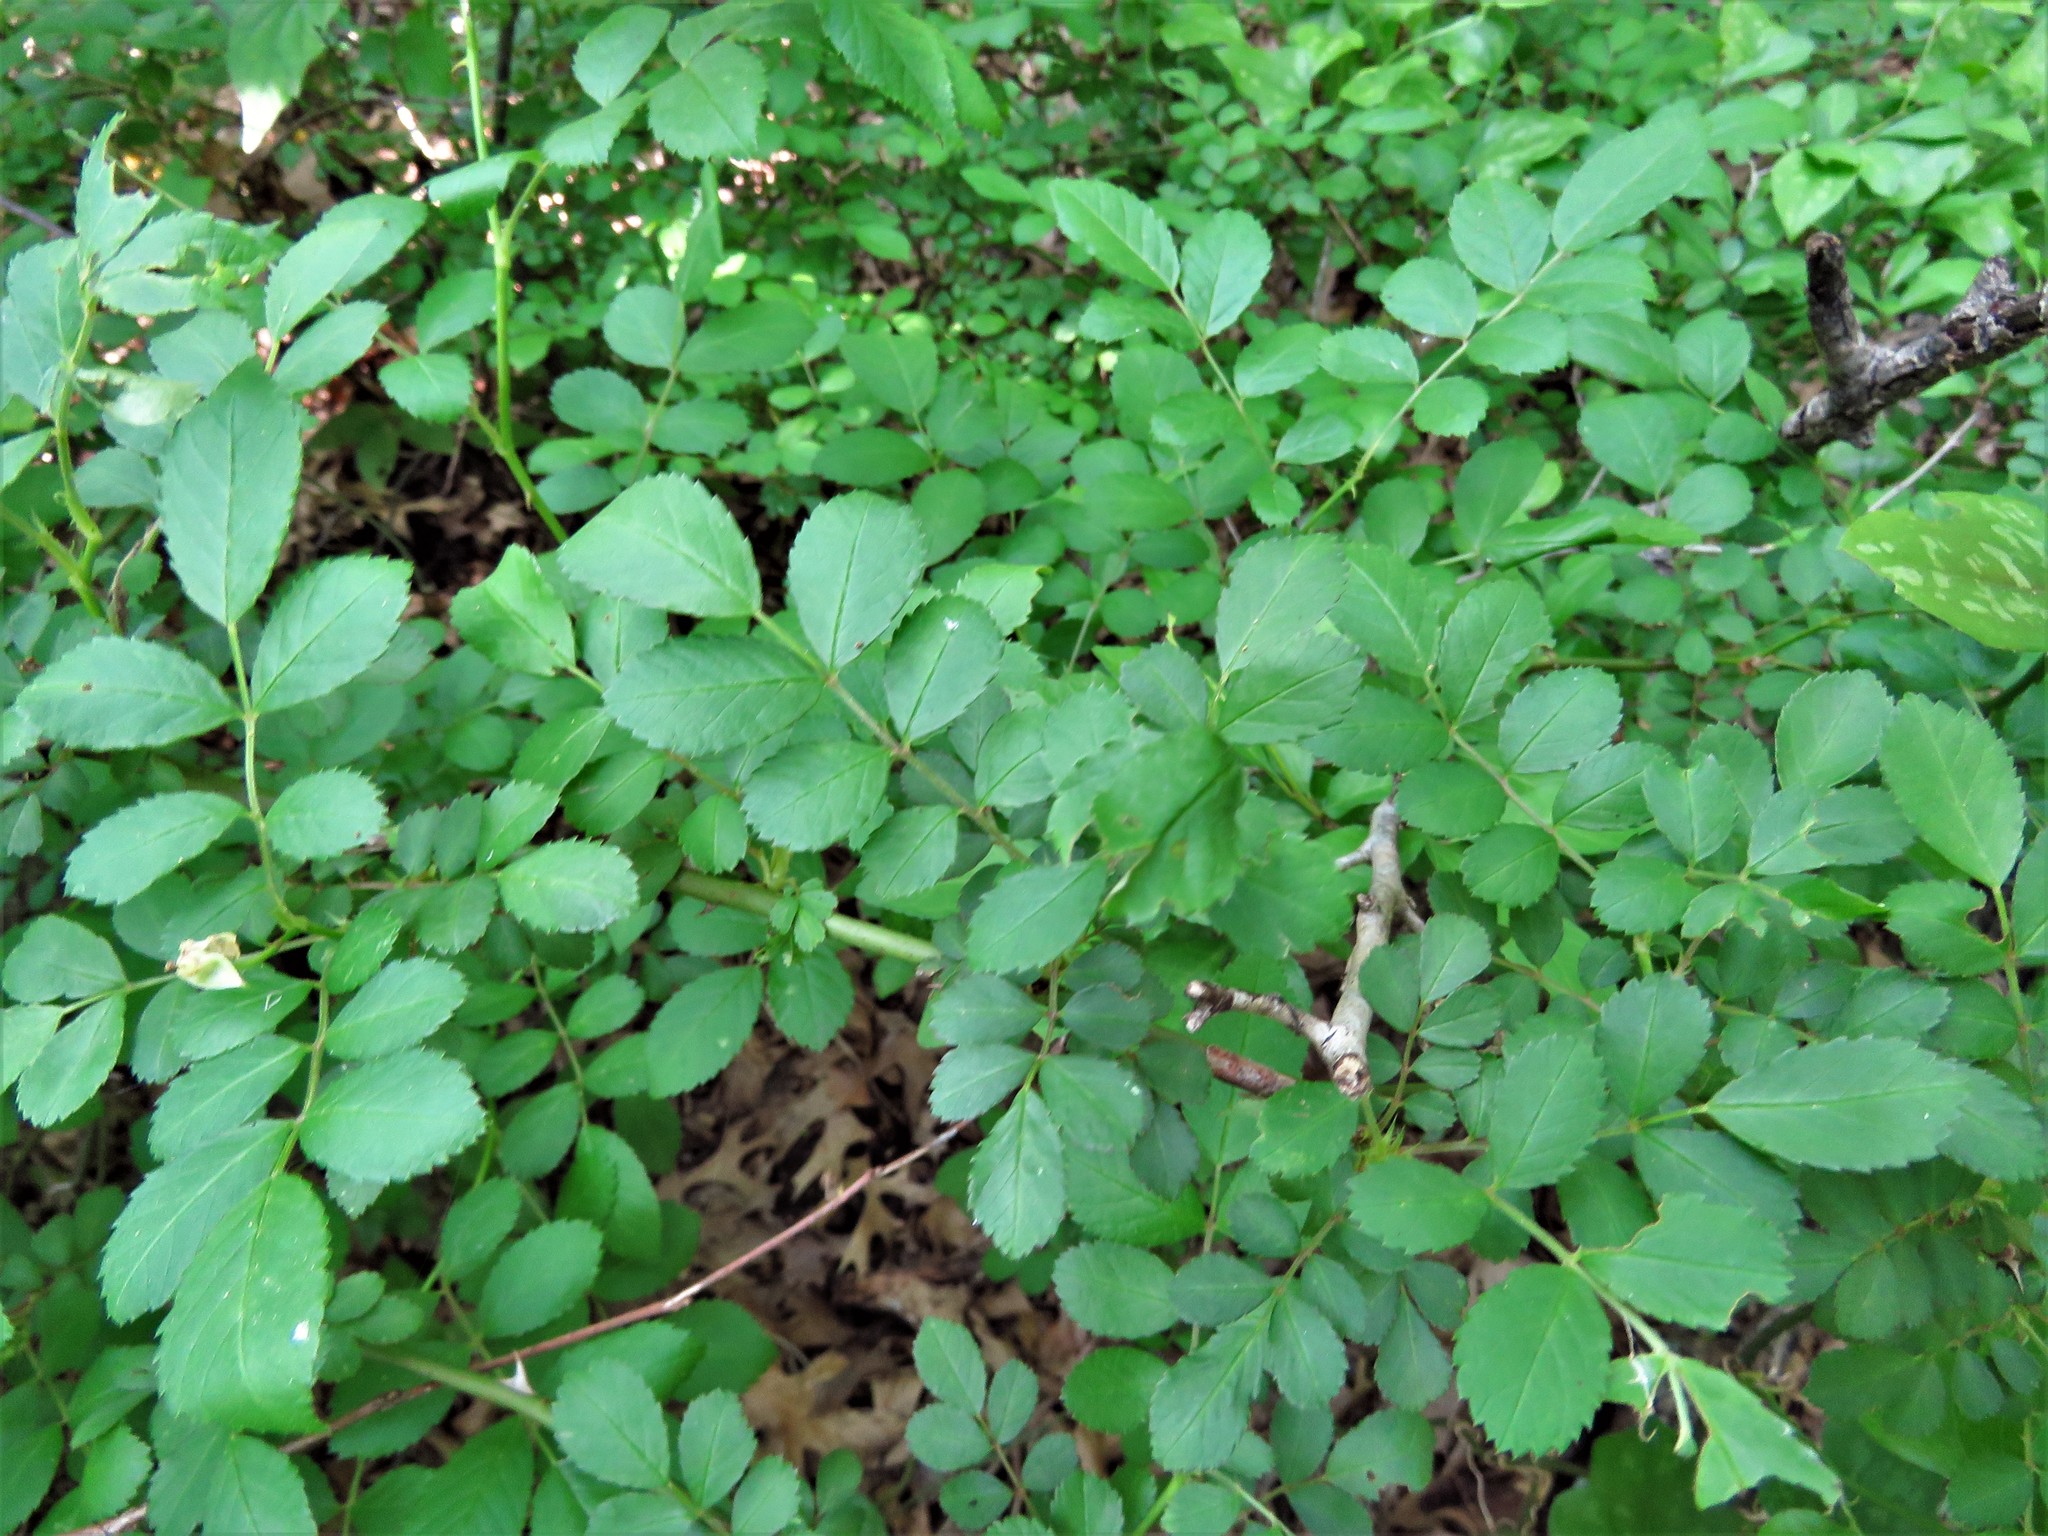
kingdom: Plantae
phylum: Tracheophyta
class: Magnoliopsida
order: Rosales
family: Rosaceae
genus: Rosa
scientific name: Rosa multiflora
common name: Multiflora rose
